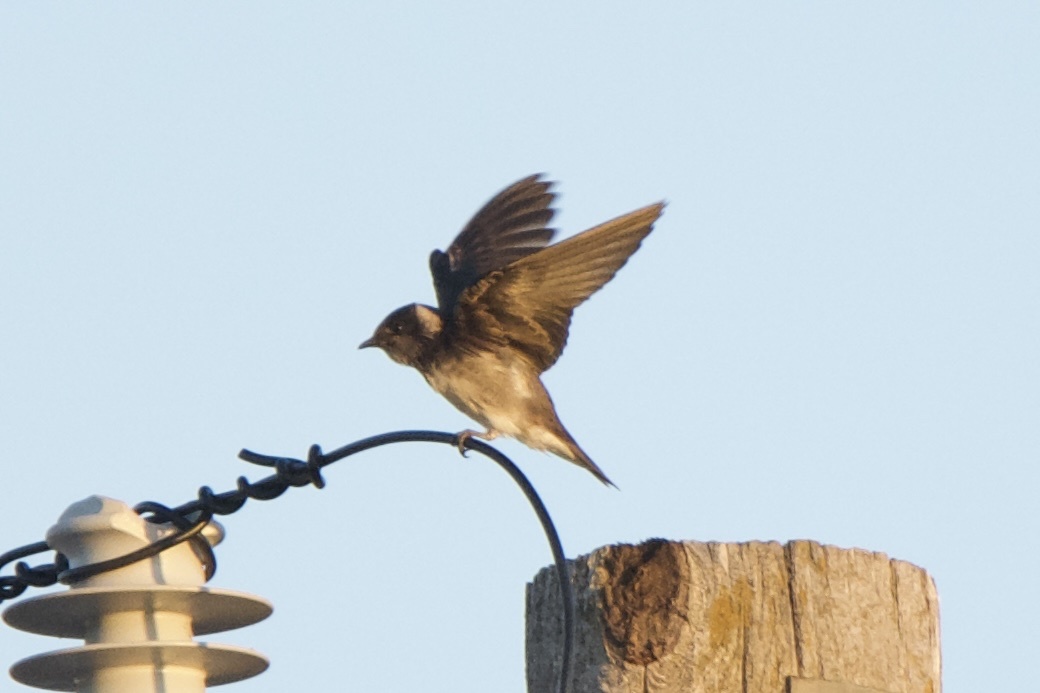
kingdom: Animalia
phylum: Chordata
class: Aves
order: Passeriformes
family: Hirundinidae
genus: Progne
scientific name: Progne subis
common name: Purple martin
